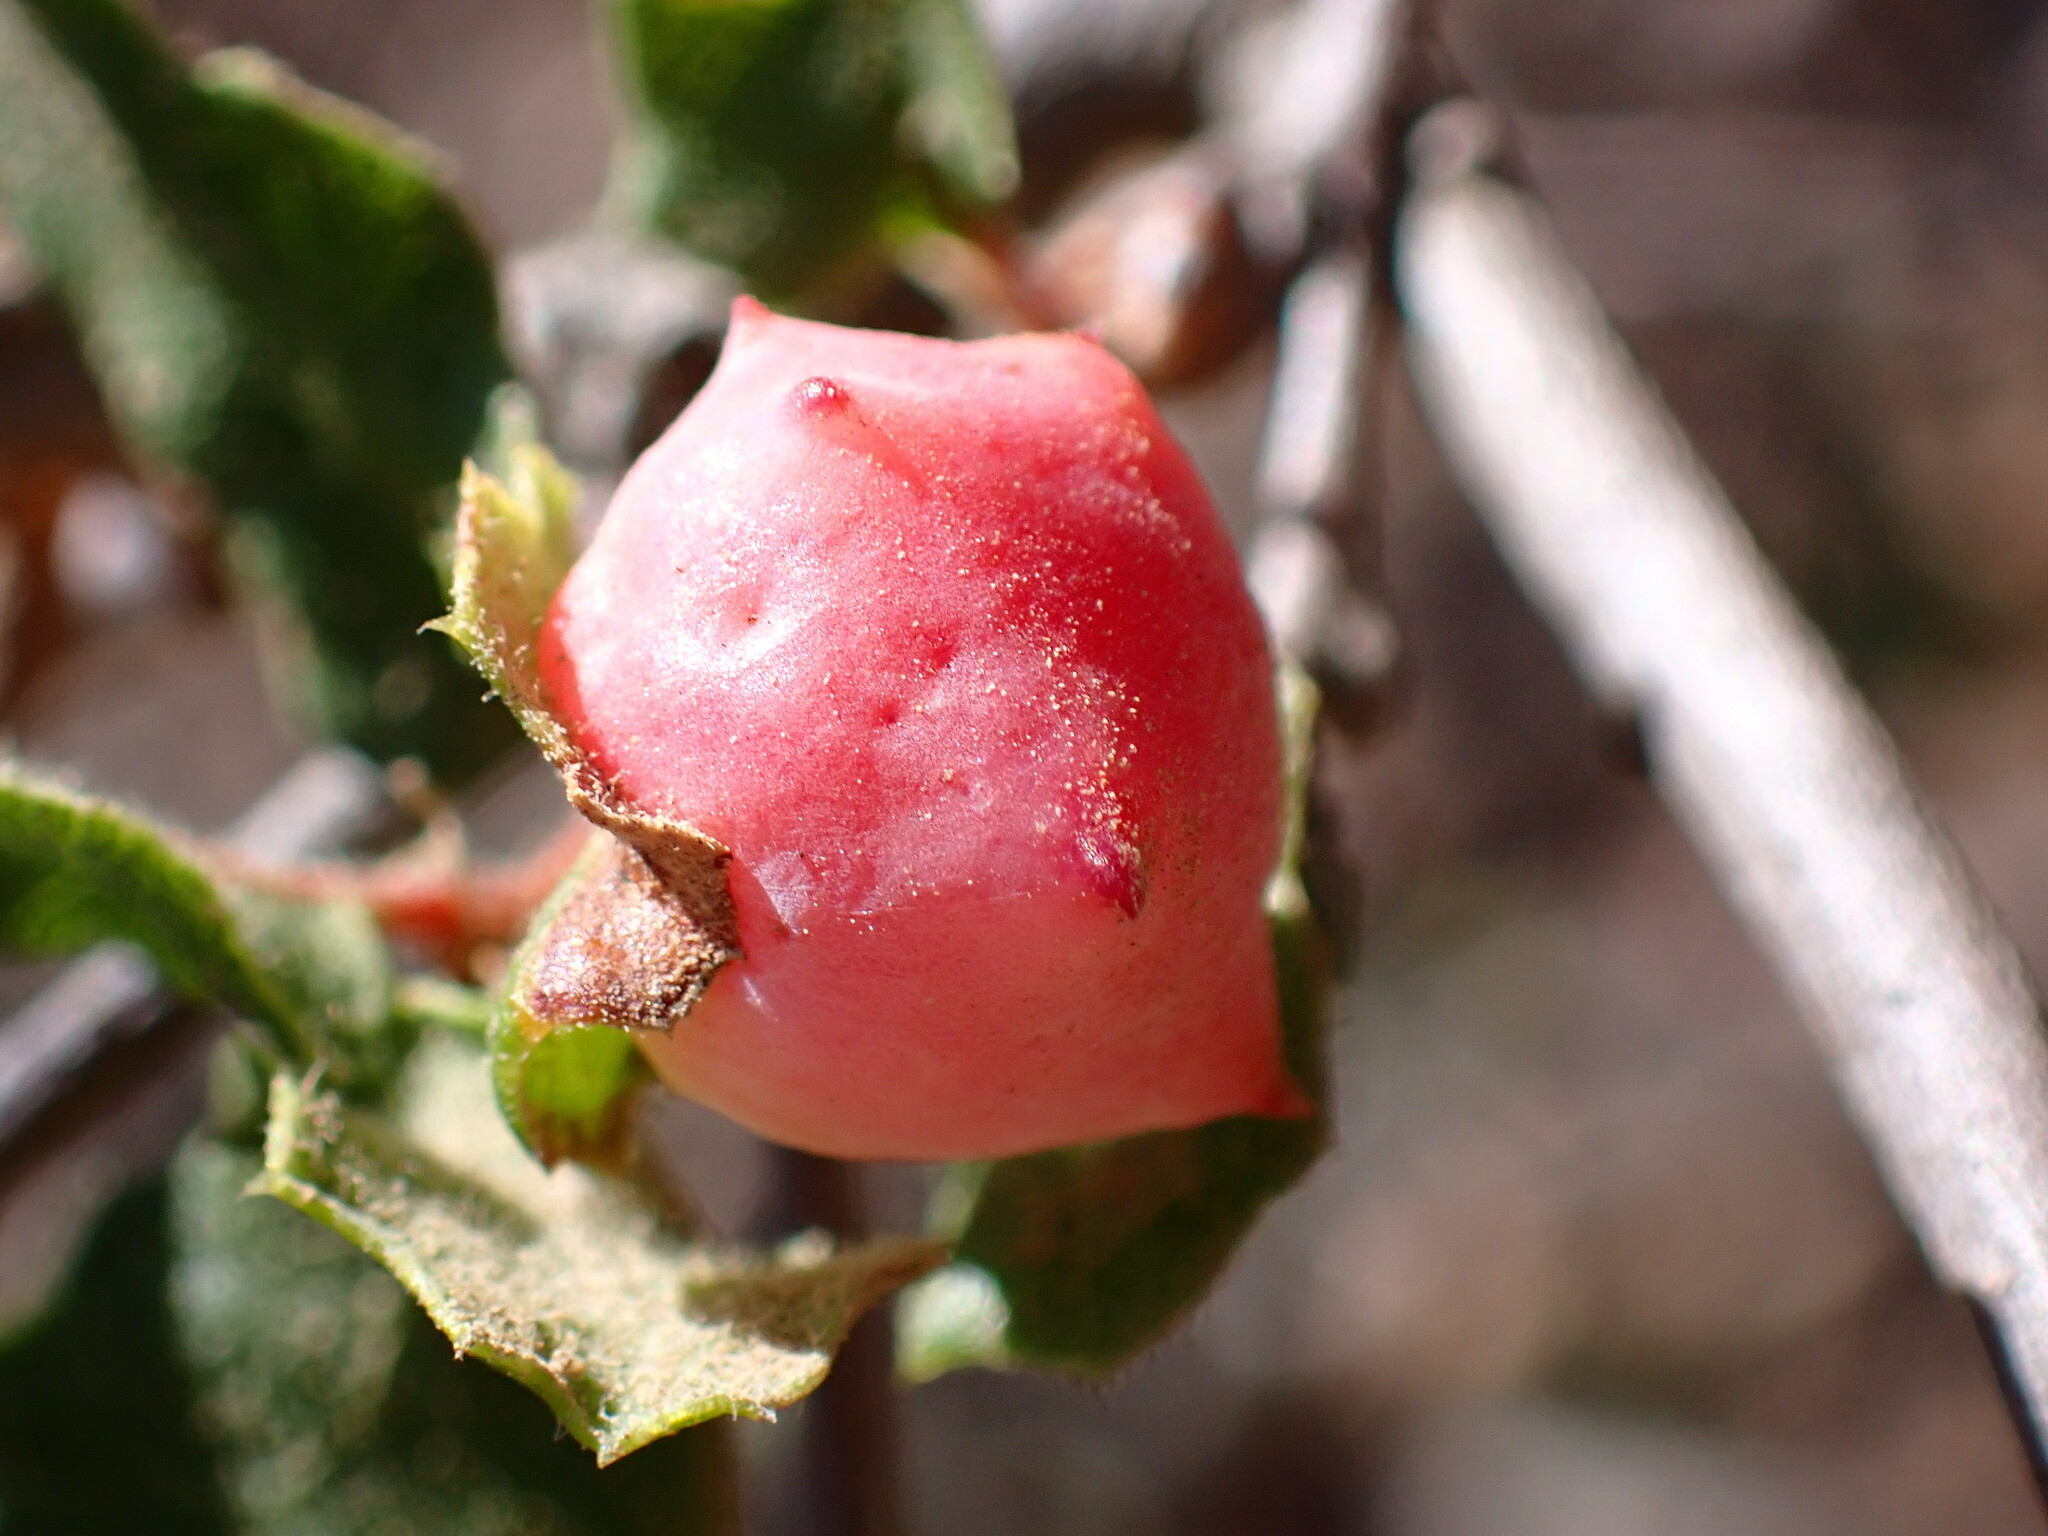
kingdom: Animalia
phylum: Arthropoda
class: Insecta
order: Hymenoptera
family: Cynipidae
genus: Cynips
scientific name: Cynips douglasi
